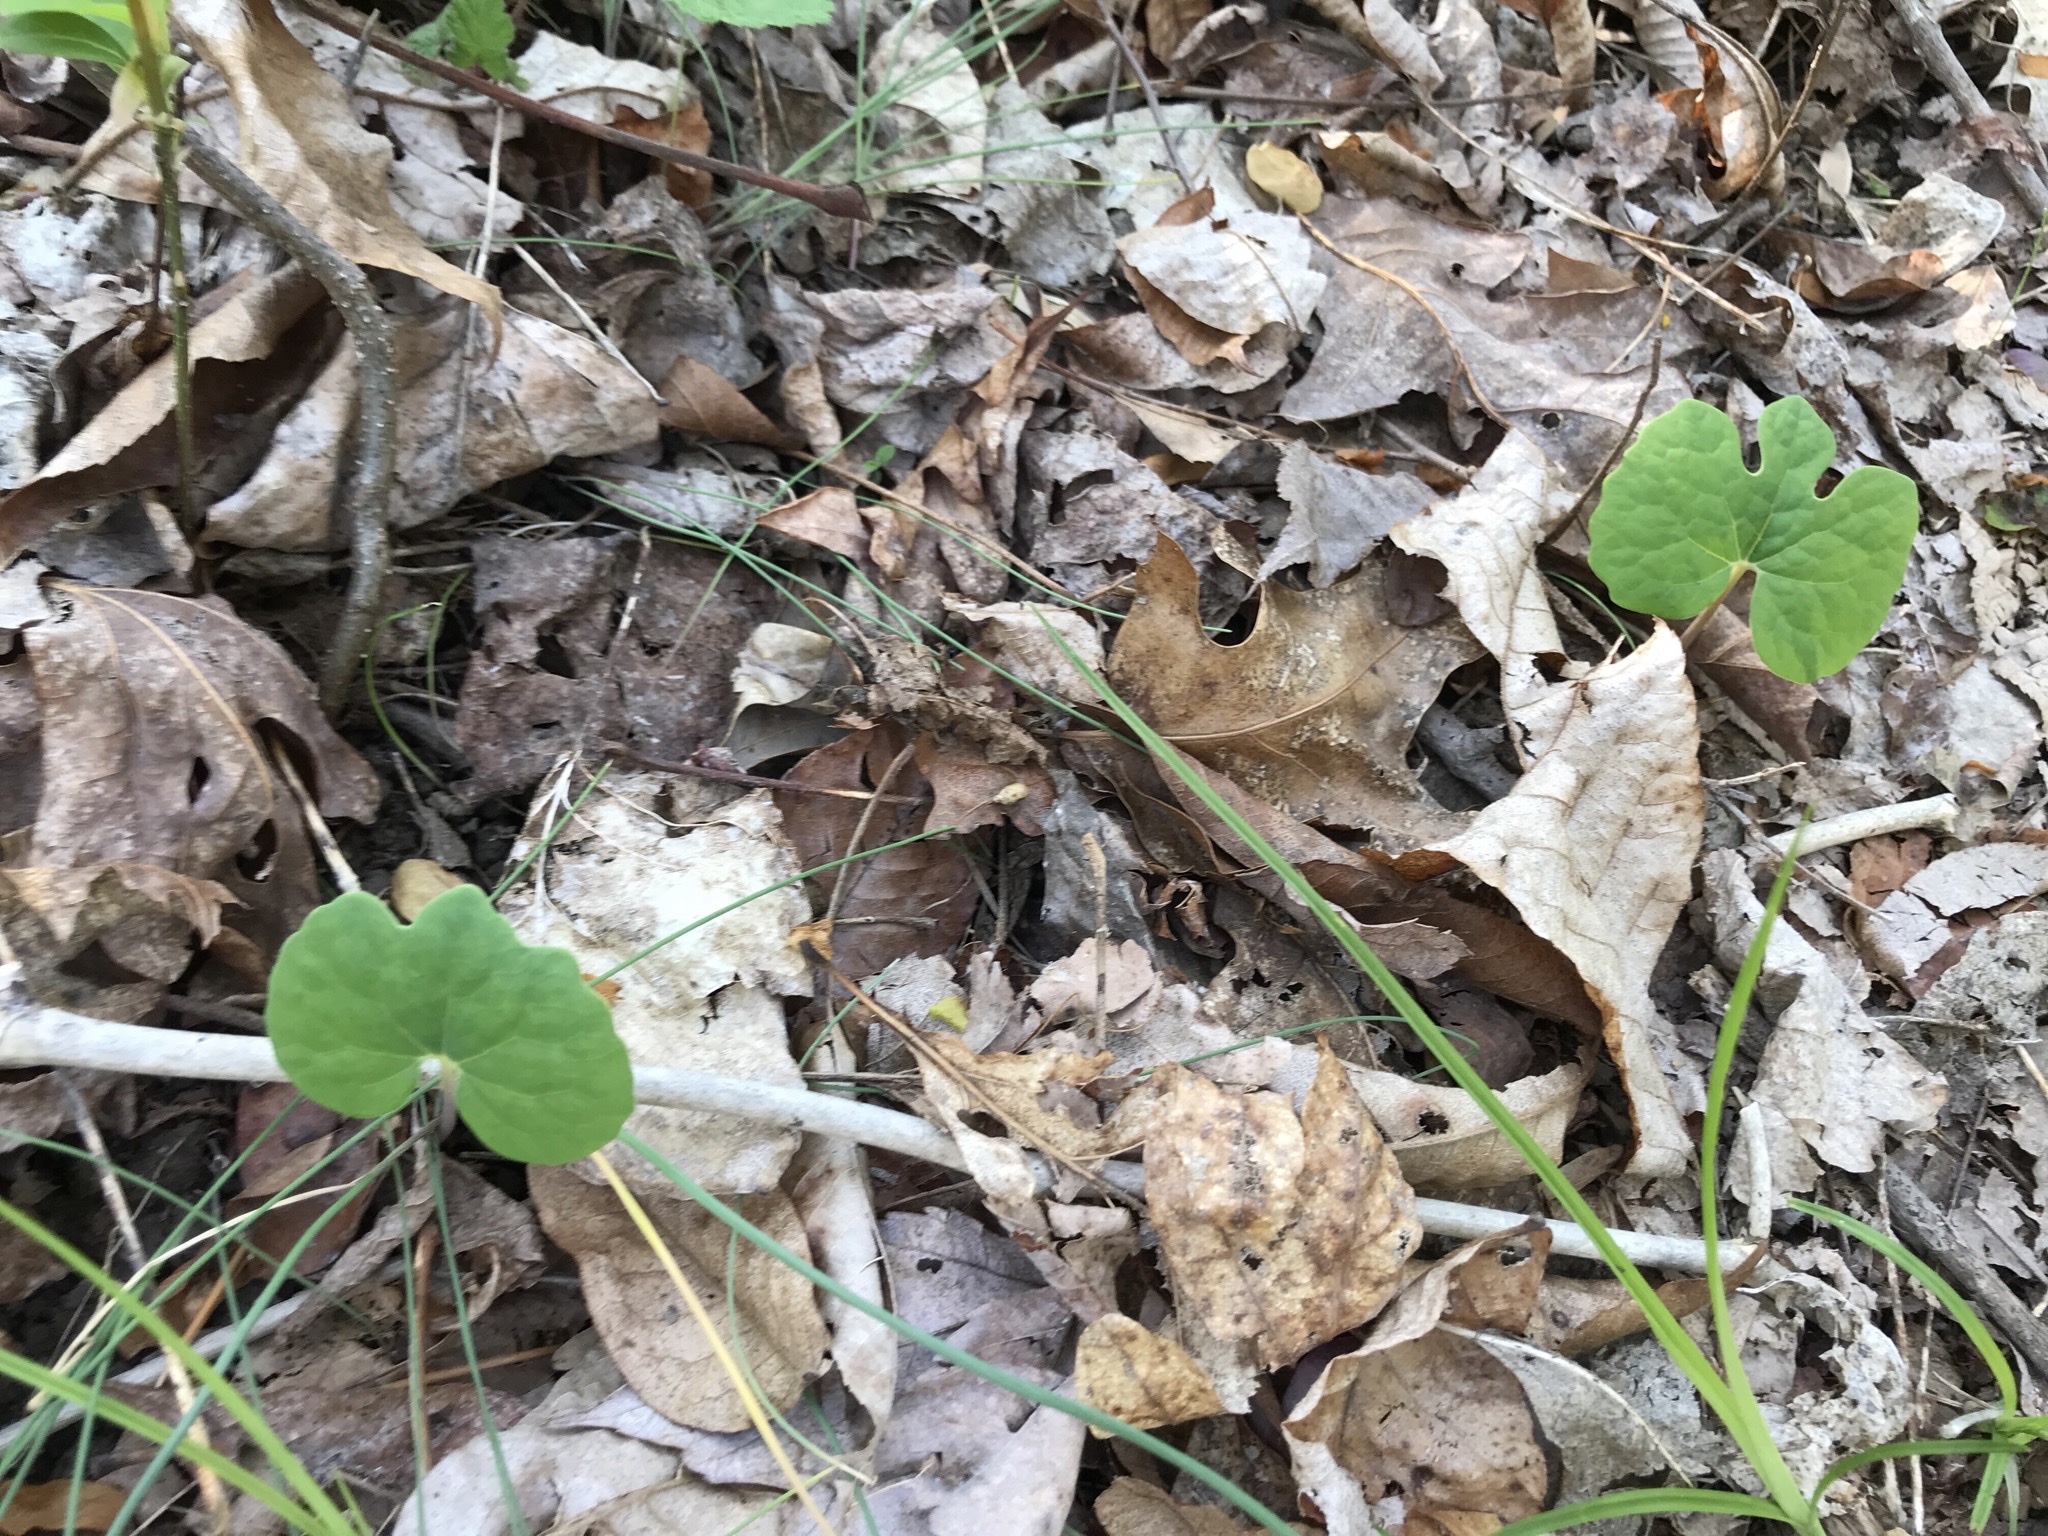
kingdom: Plantae
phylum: Tracheophyta
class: Magnoliopsida
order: Ranunculales
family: Papaveraceae
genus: Sanguinaria
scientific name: Sanguinaria canadensis
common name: Bloodroot
